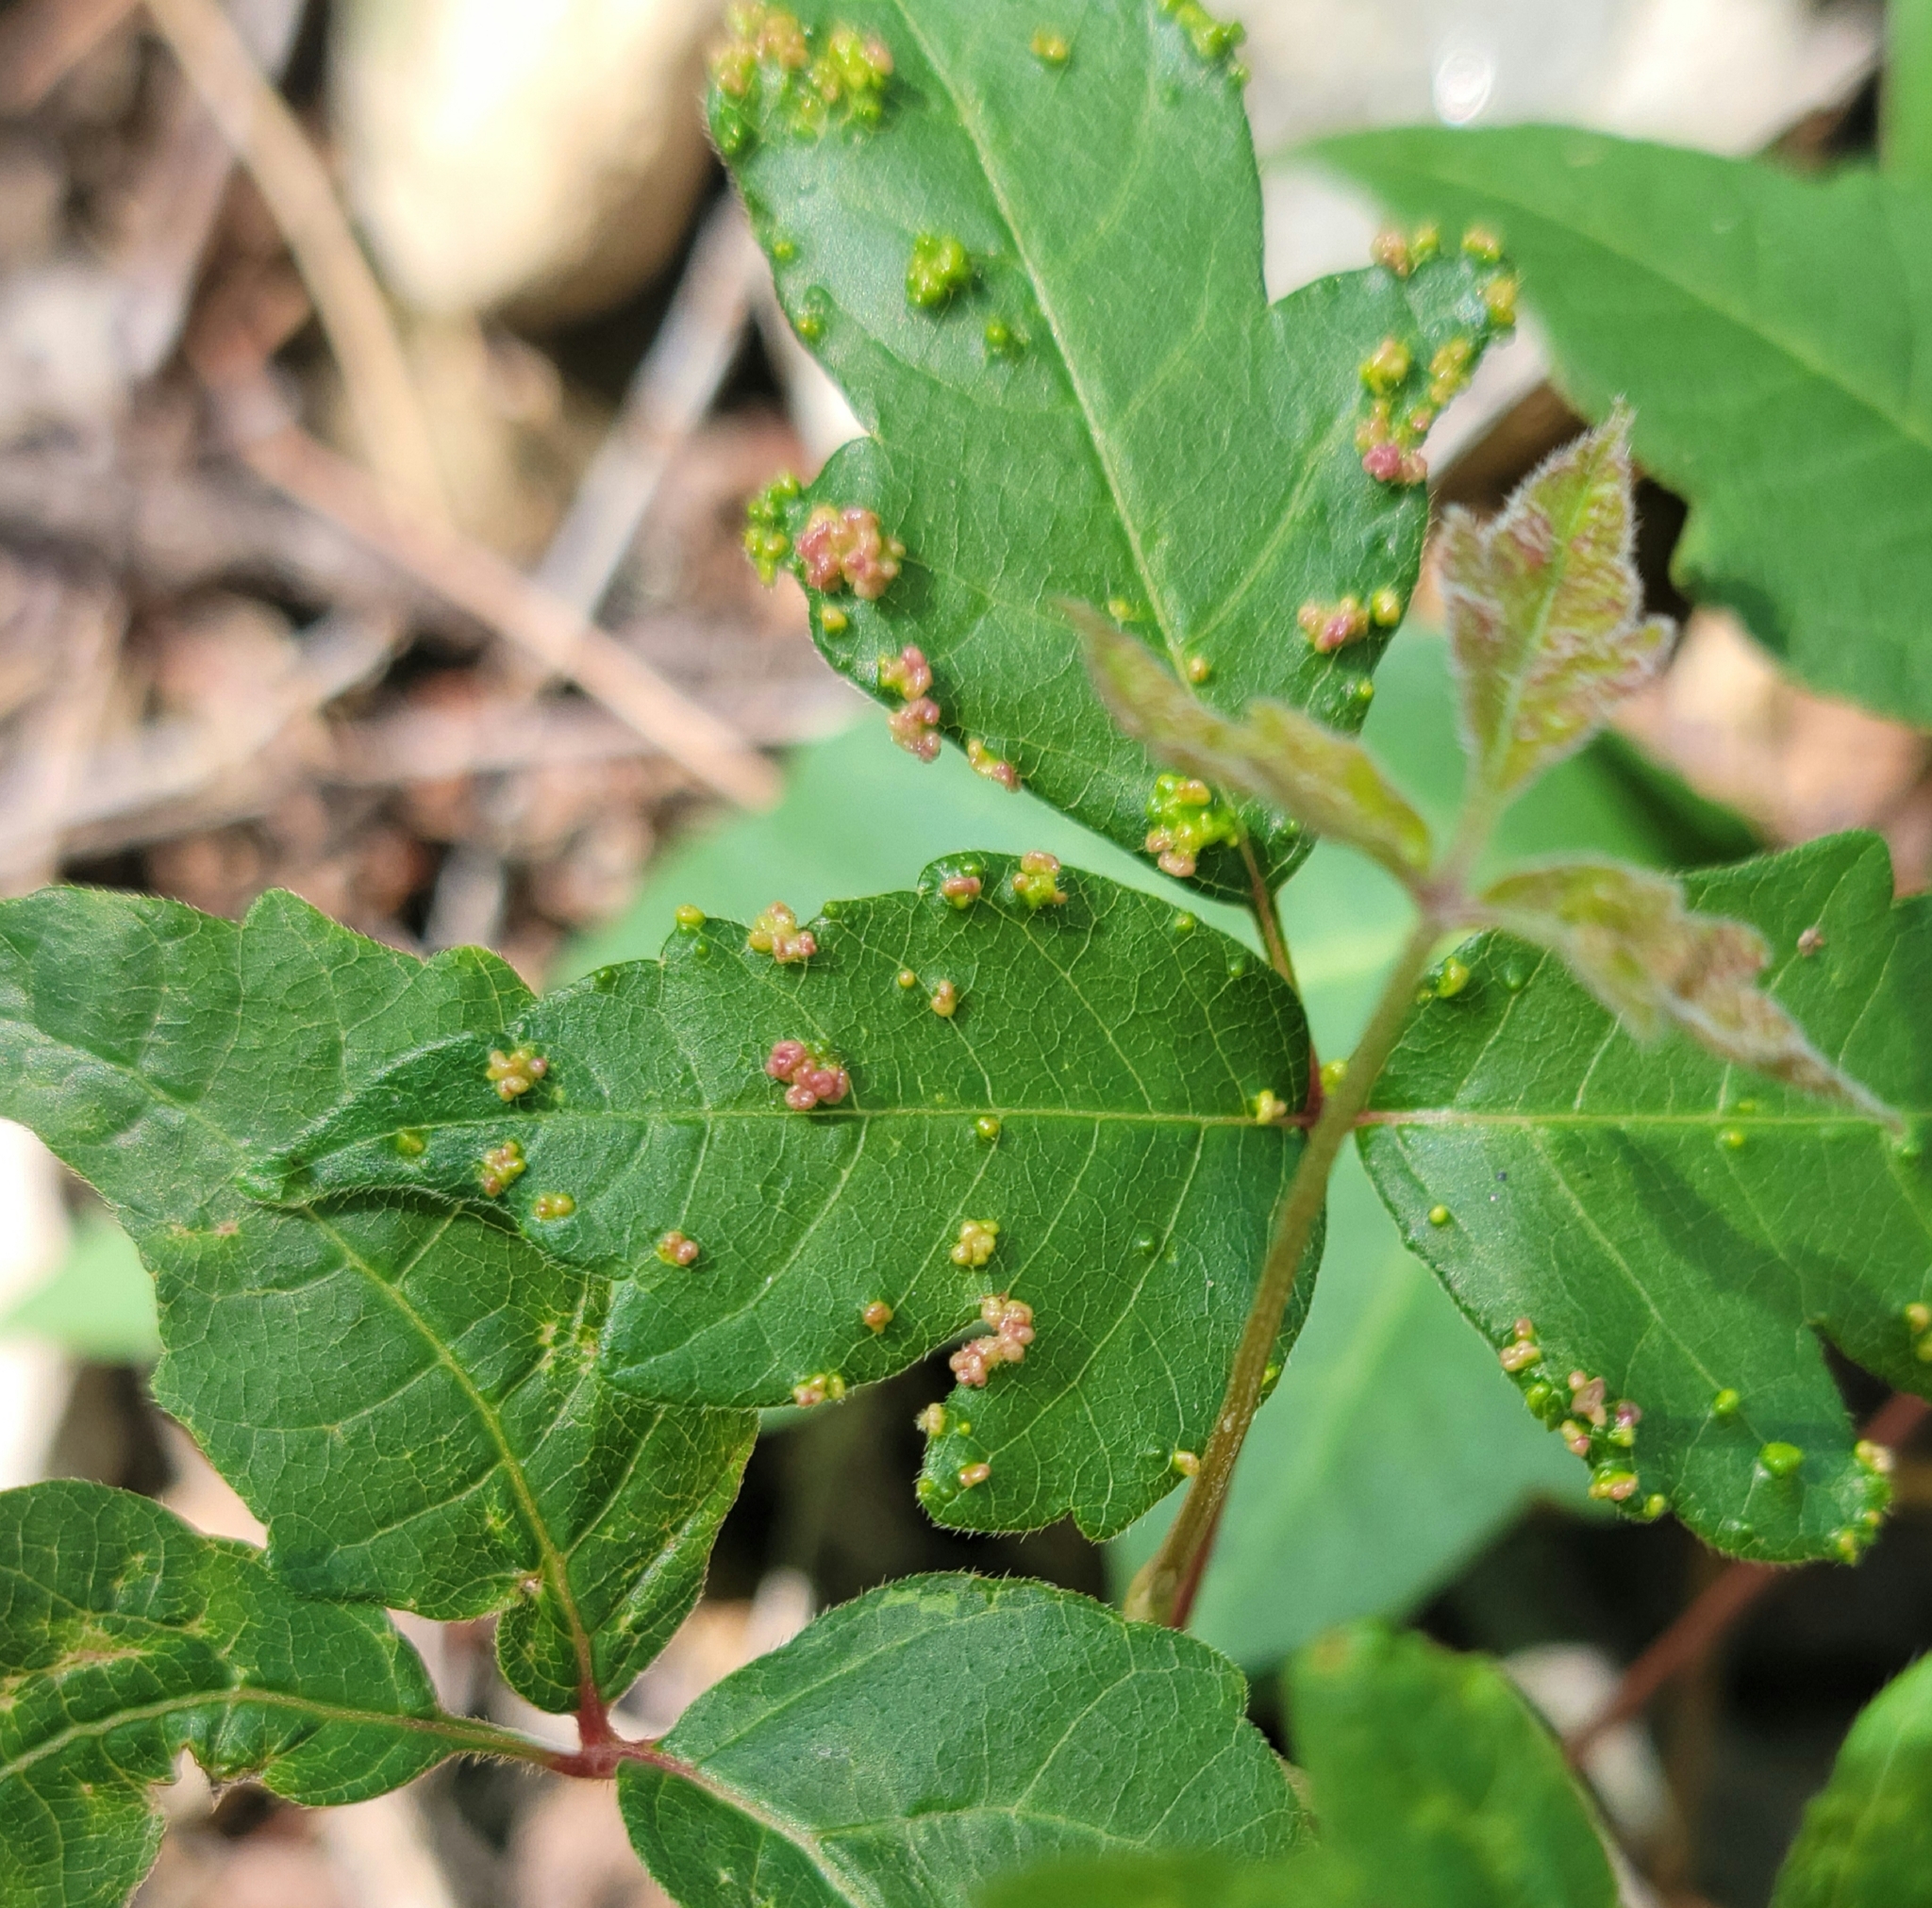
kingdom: Animalia
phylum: Arthropoda
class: Arachnida
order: Trombidiformes
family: Eriophyidae
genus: Aculops
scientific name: Aculops
